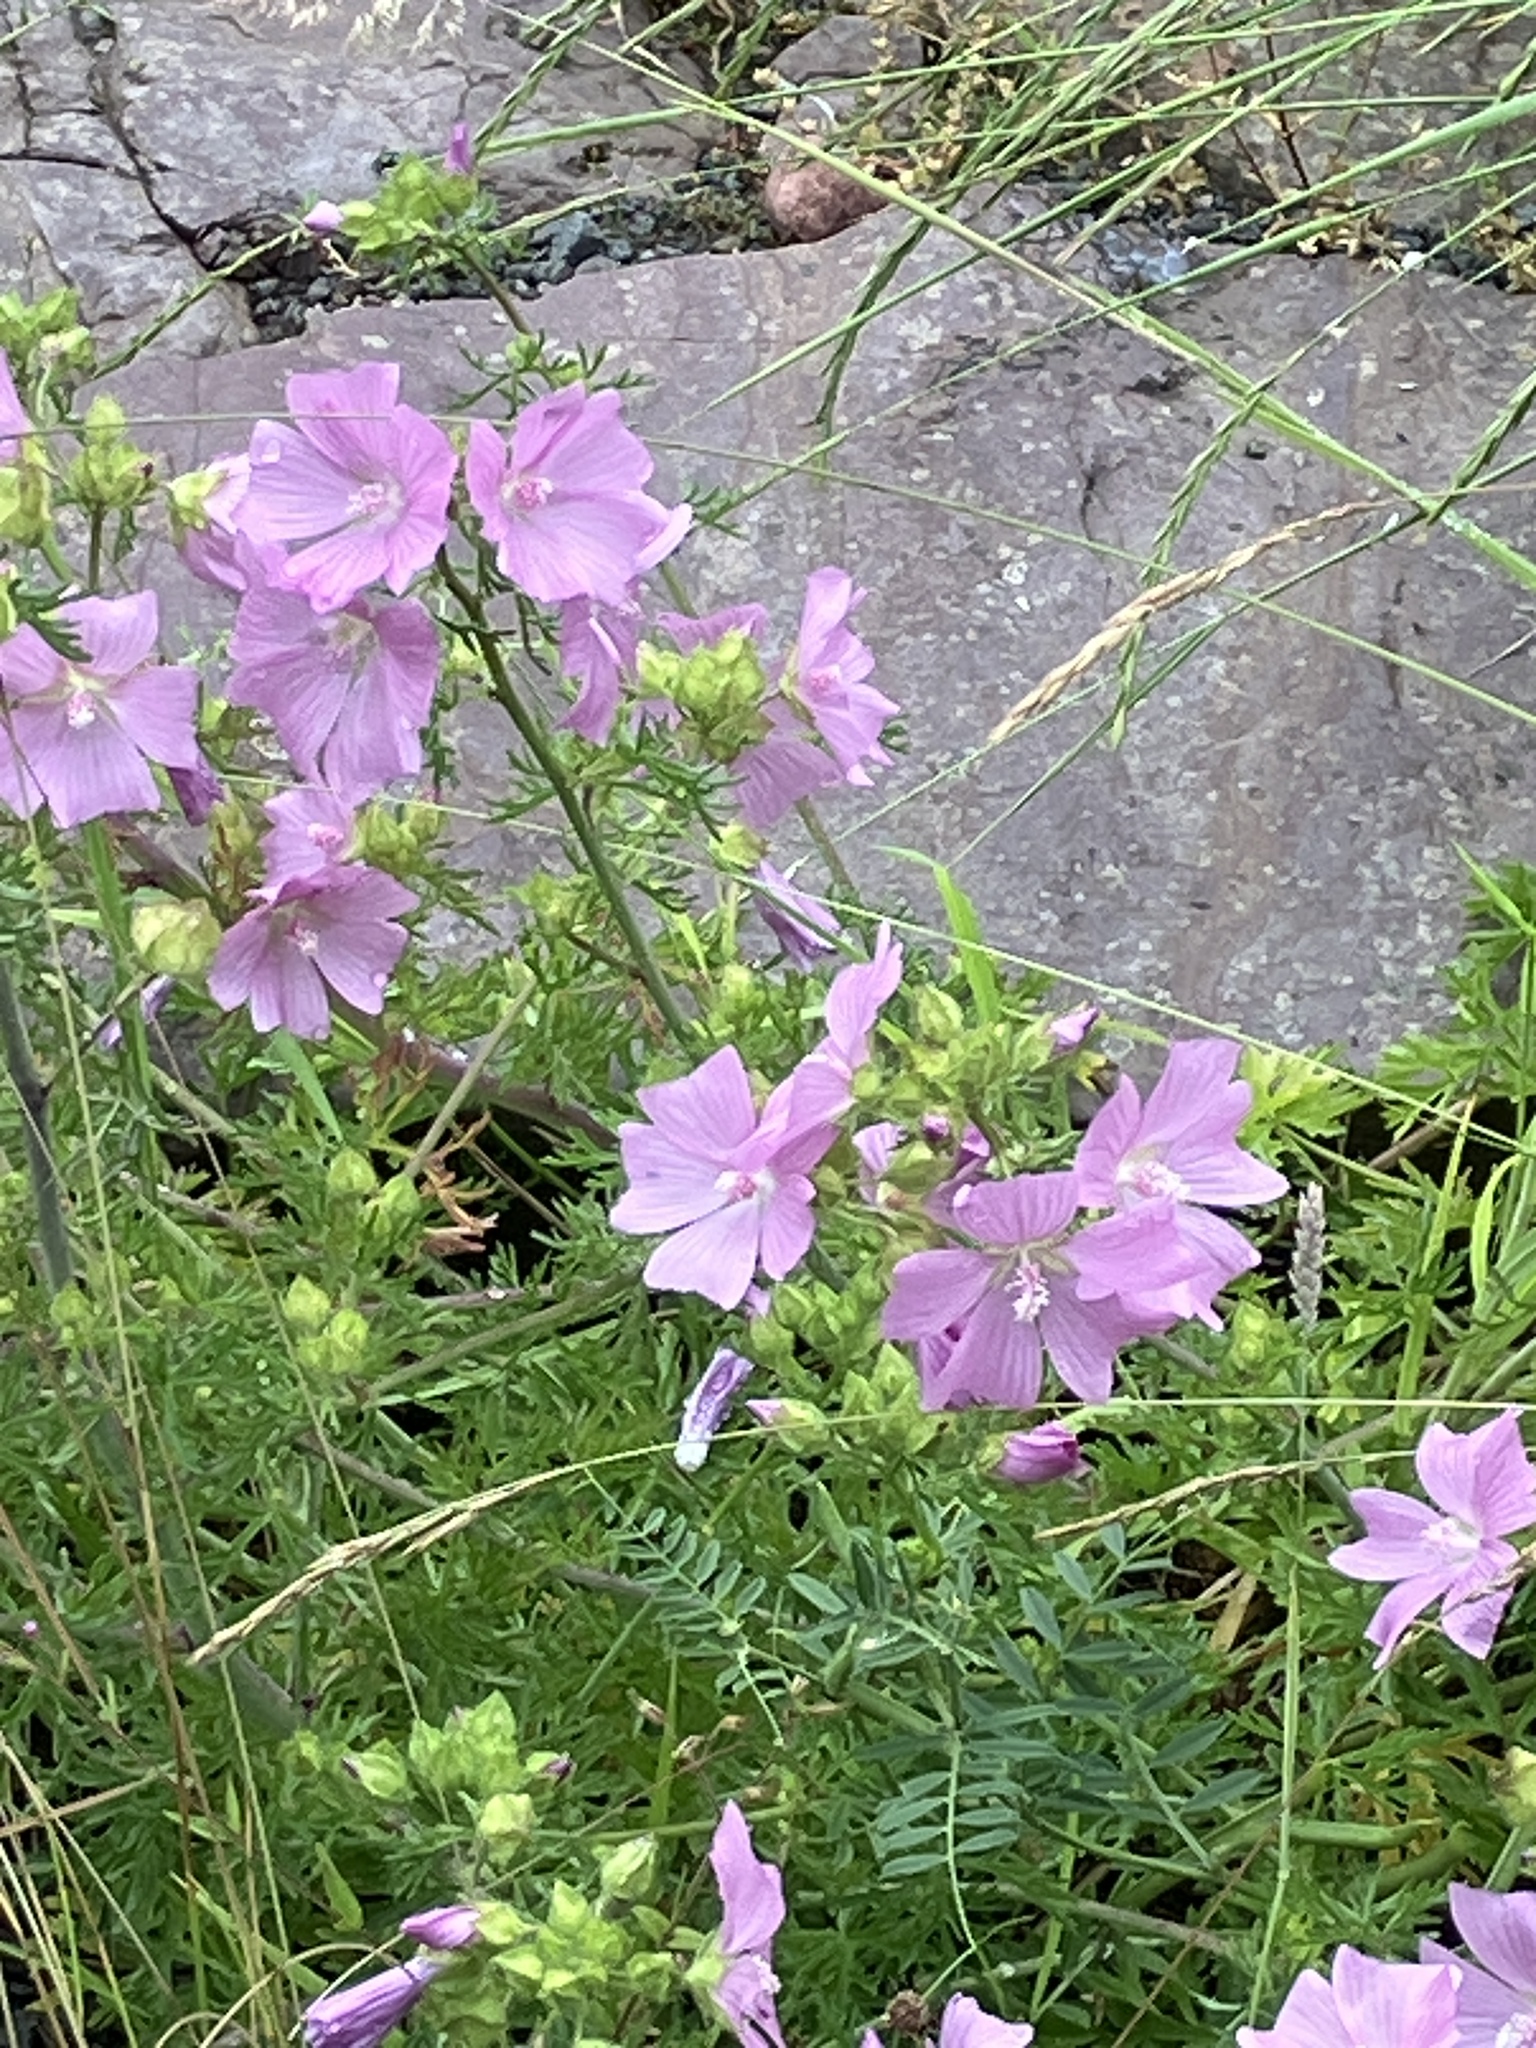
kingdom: Plantae
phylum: Tracheophyta
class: Magnoliopsida
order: Malvales
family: Malvaceae
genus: Malva
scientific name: Malva moschata
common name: Musk mallow
